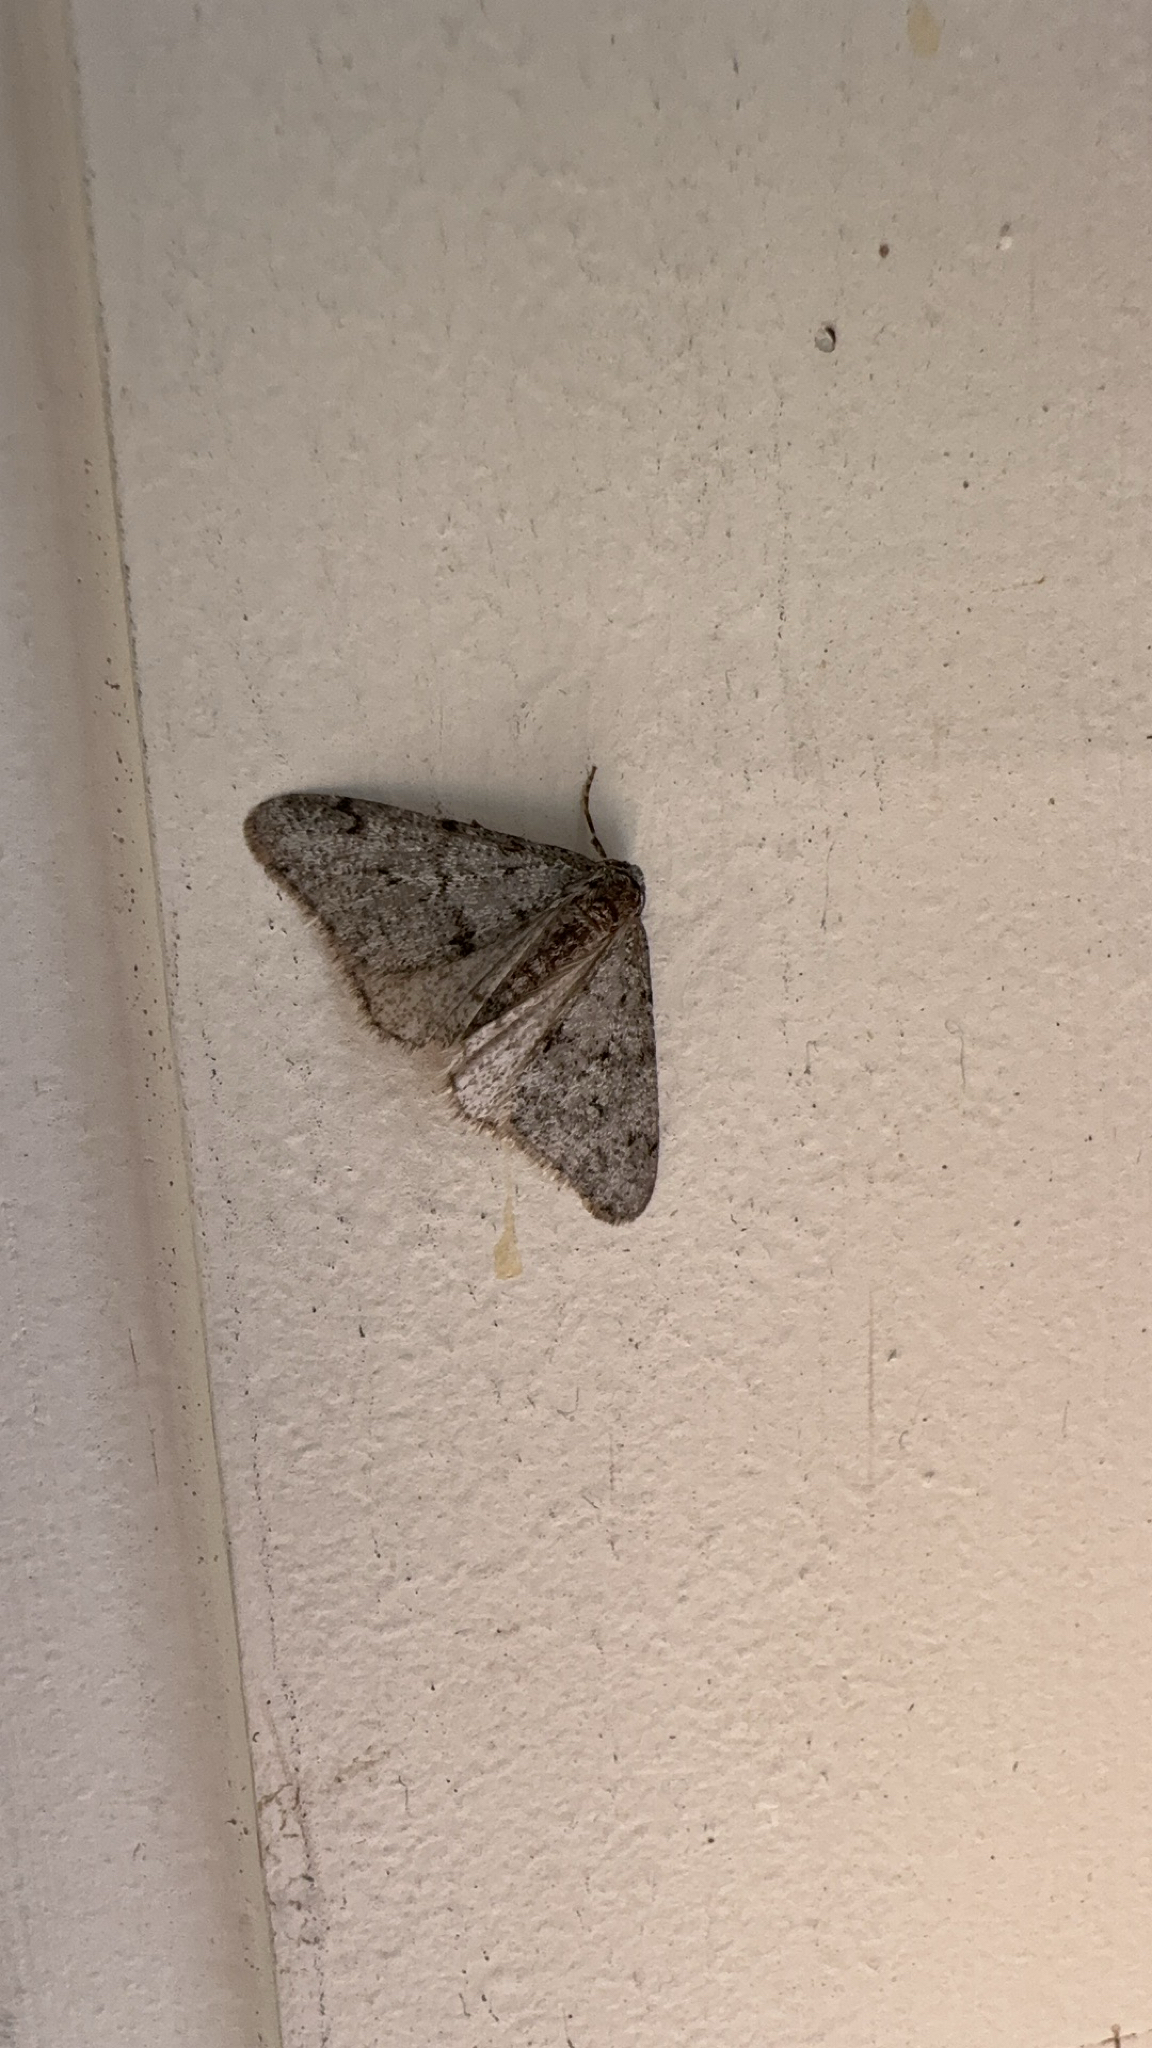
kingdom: Animalia
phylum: Arthropoda
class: Insecta
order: Lepidoptera
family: Geometridae
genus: Phigalia
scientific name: Phigalia strigataria
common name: Small phigalia
